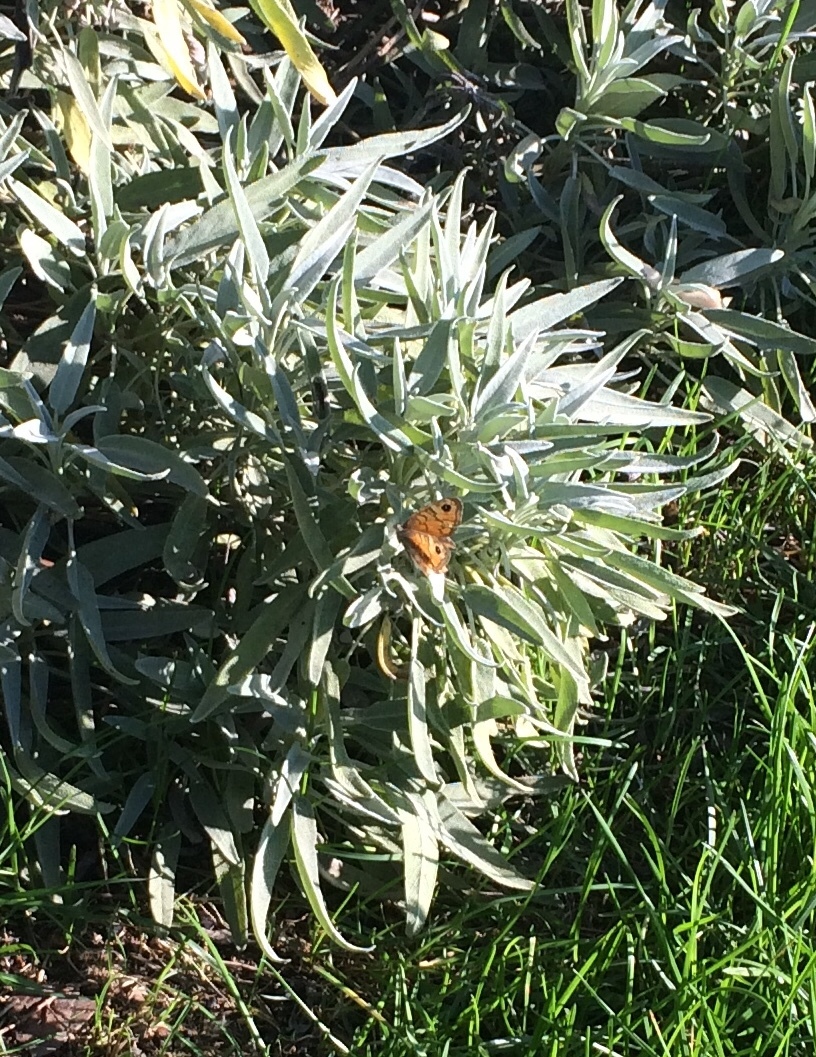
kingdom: Animalia
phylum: Arthropoda
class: Insecta
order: Lepidoptera
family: Nymphalidae
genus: Pararge
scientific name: Pararge Lasiommata megera
